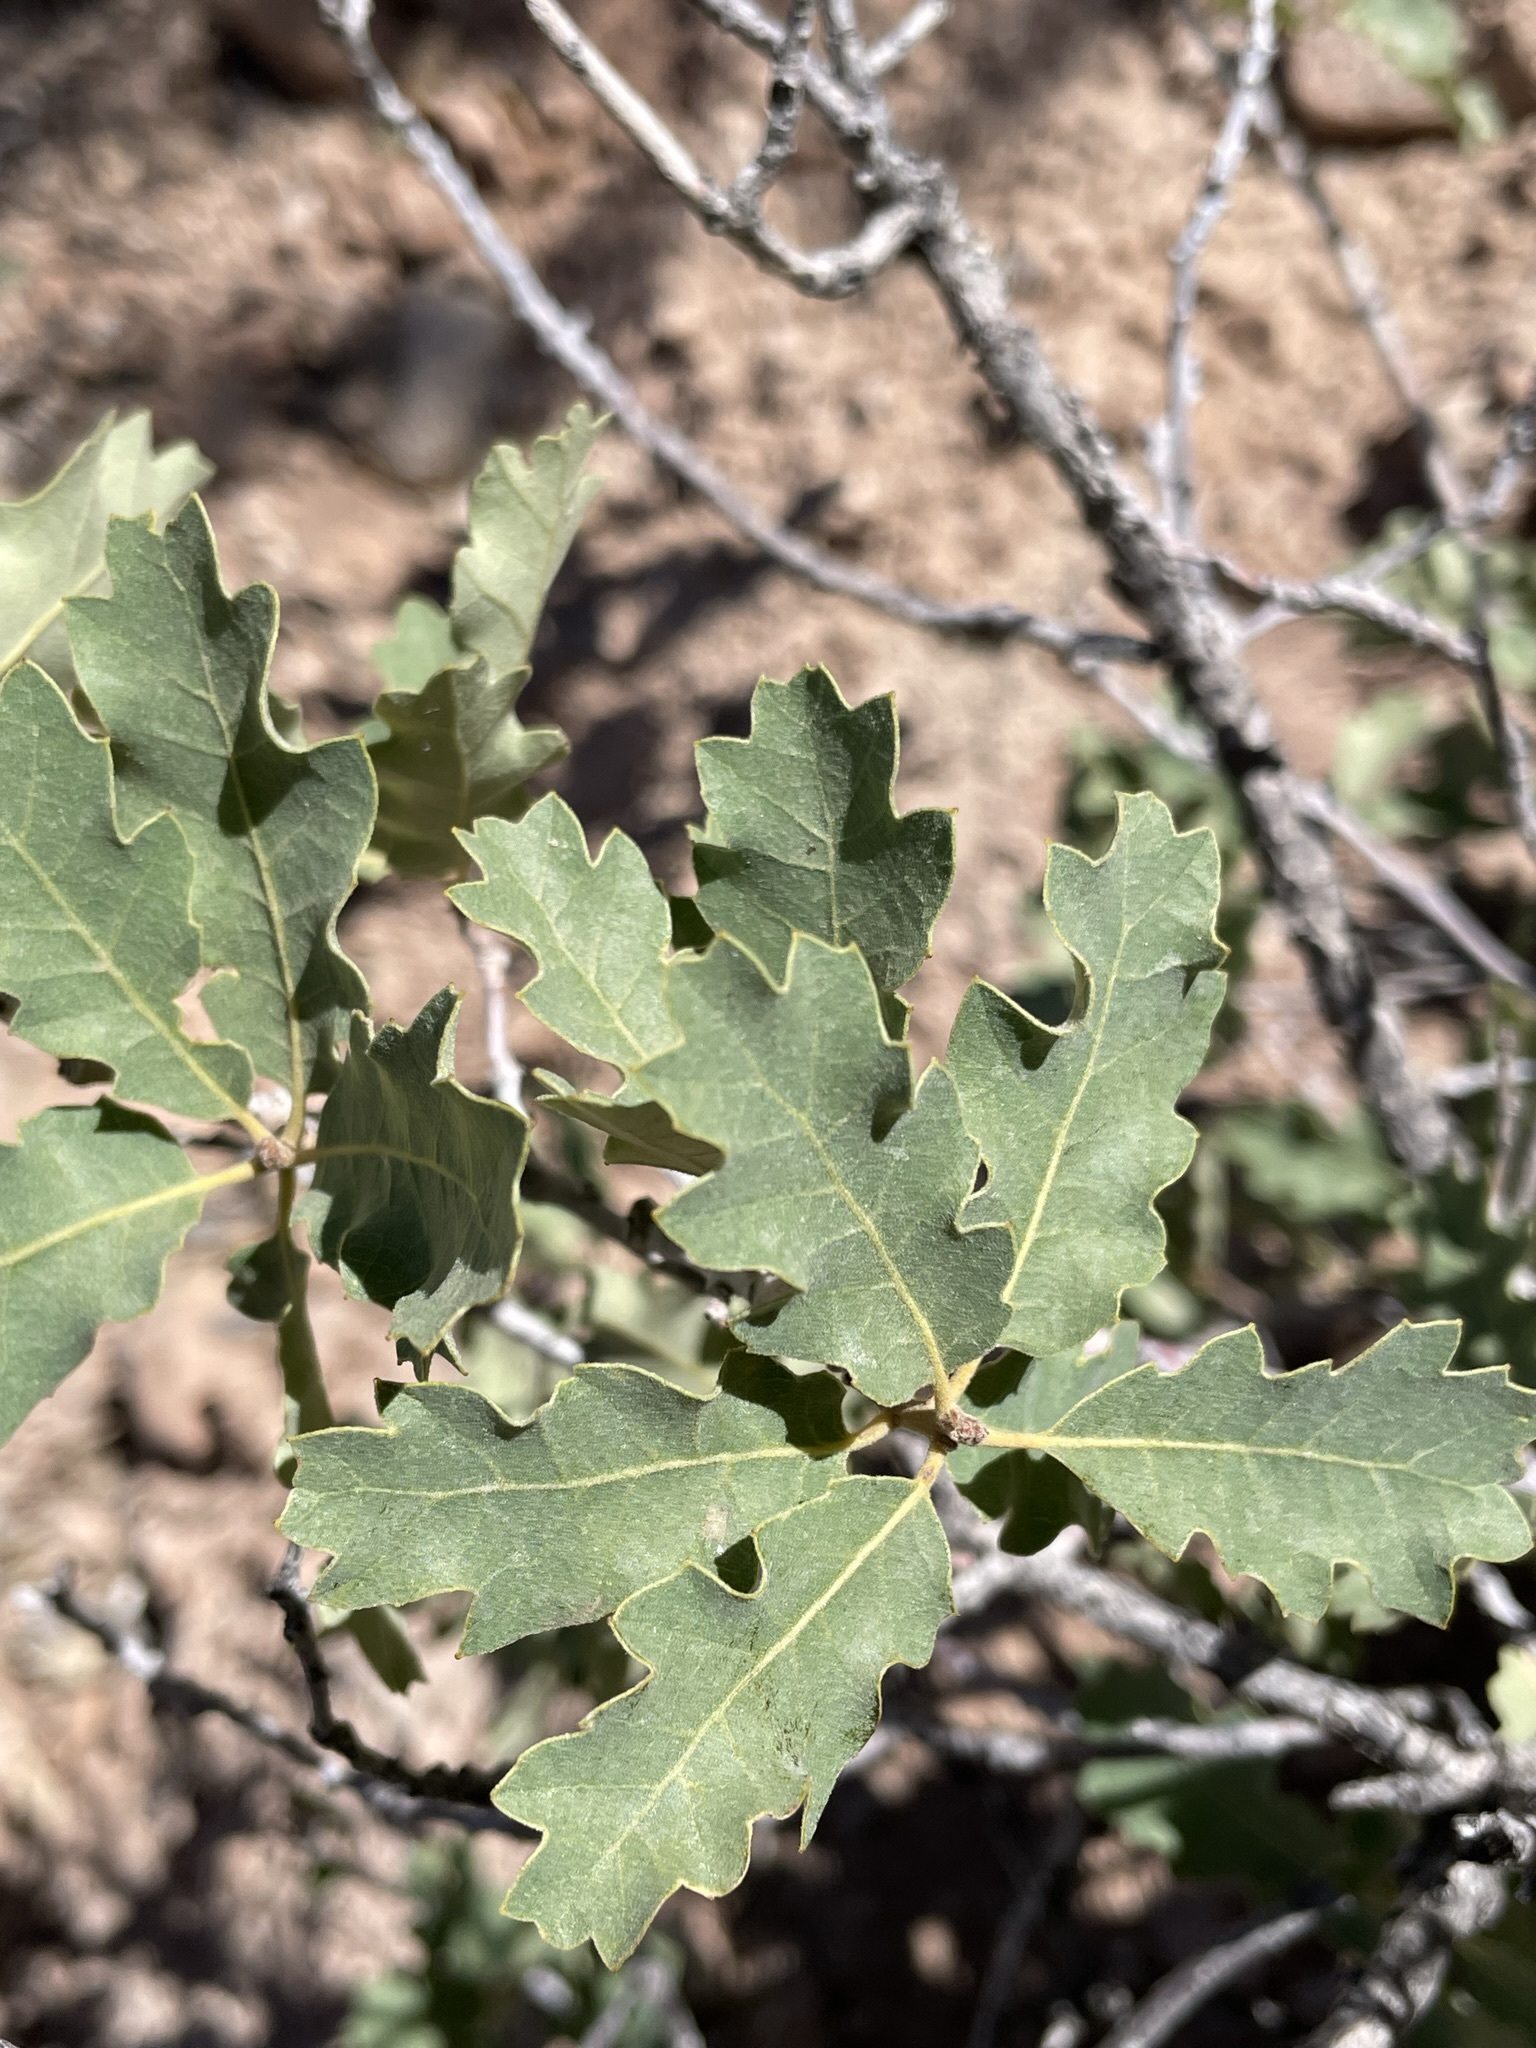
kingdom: Plantae
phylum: Tracheophyta
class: Magnoliopsida
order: Fagales
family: Fagaceae
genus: Quercus
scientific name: Quercus welshii
